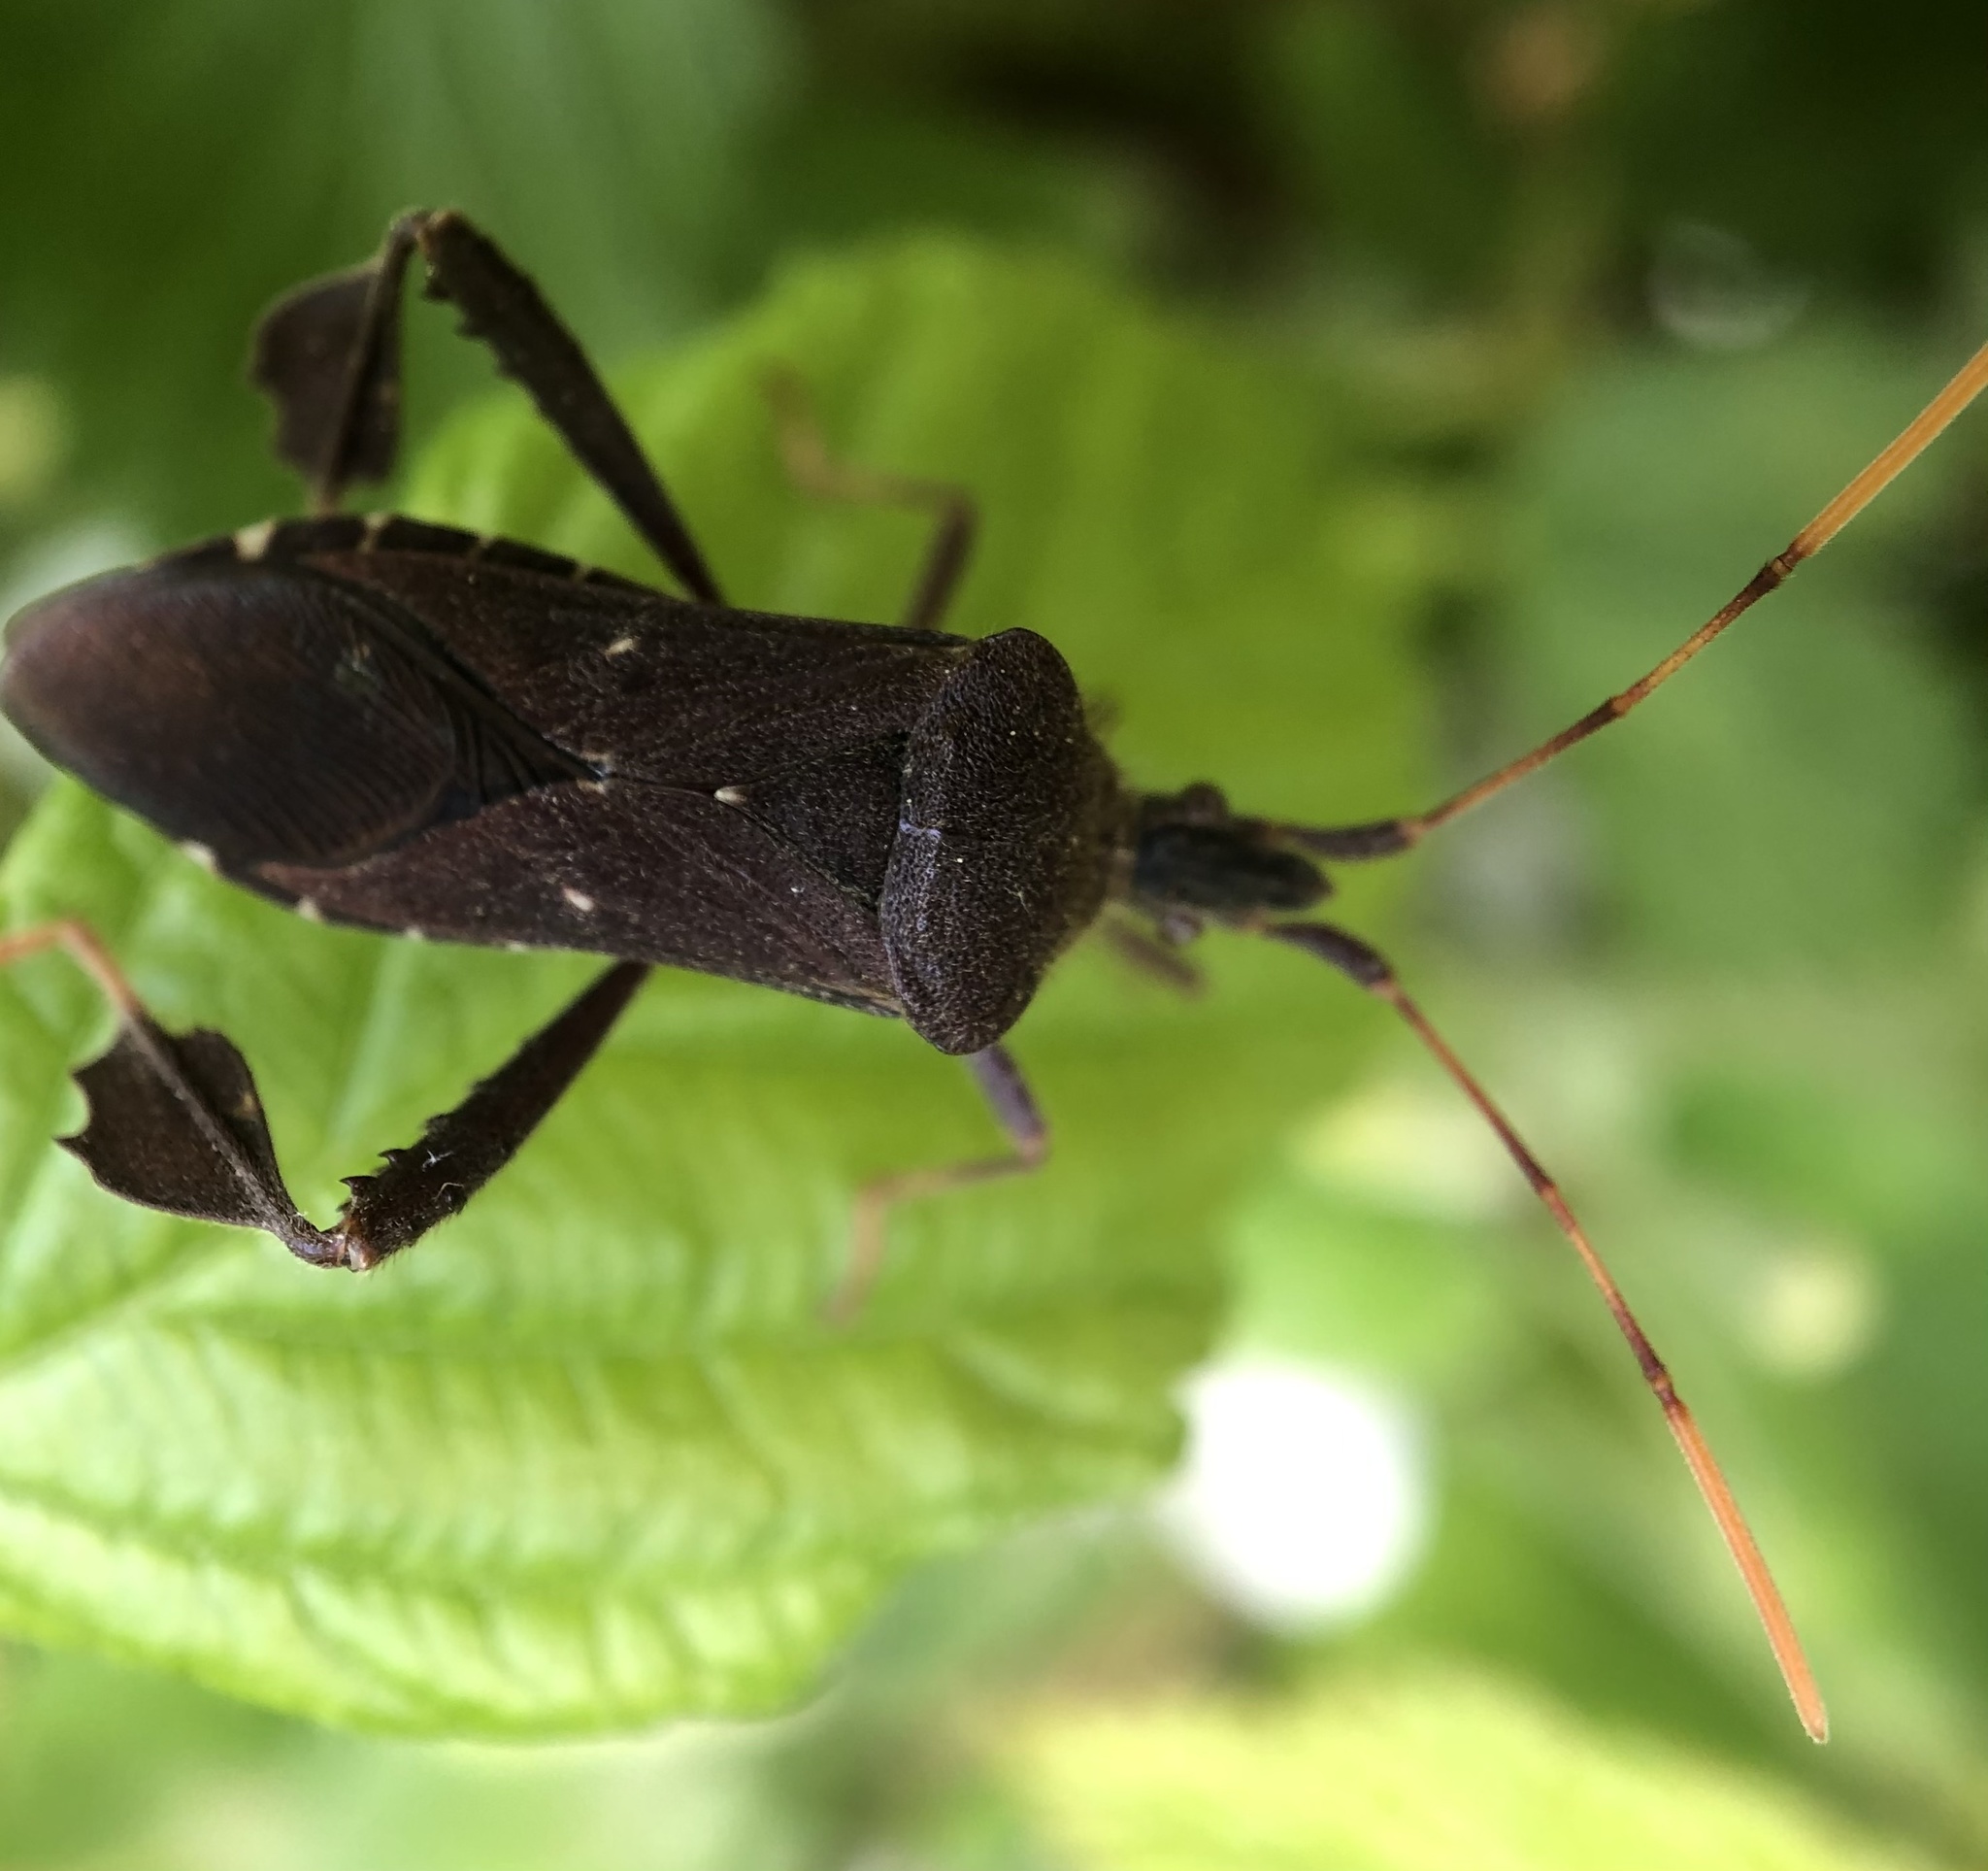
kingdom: Animalia
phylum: Arthropoda
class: Insecta
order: Hemiptera
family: Coreidae
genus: Leptoglossus
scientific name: Leptoglossus oppositus
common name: Northern leaf-footed bug
